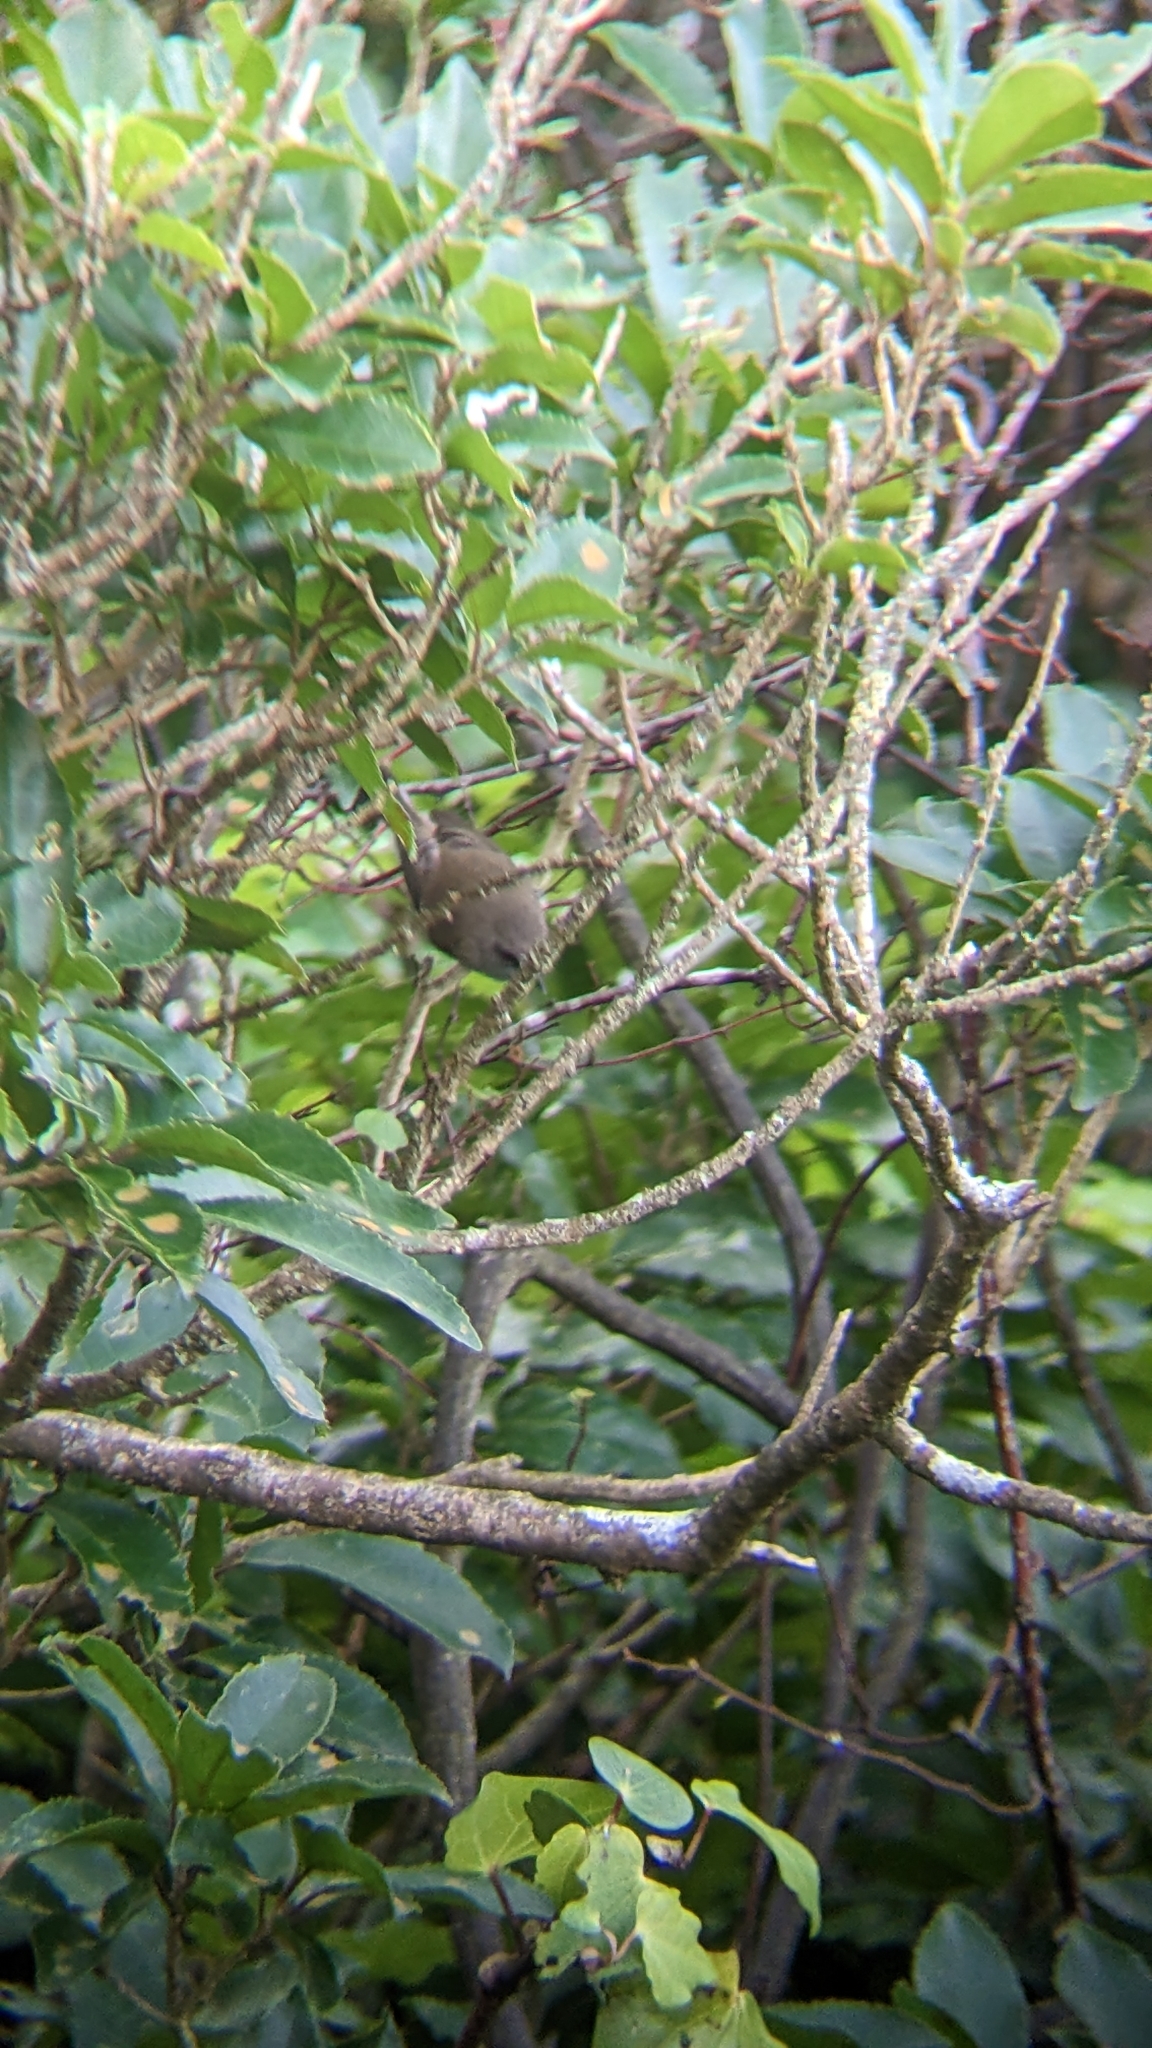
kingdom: Animalia
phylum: Chordata
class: Aves
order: Passeriformes
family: Acanthizidae
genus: Gerygone
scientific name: Gerygone igata
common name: Grey gerygone
